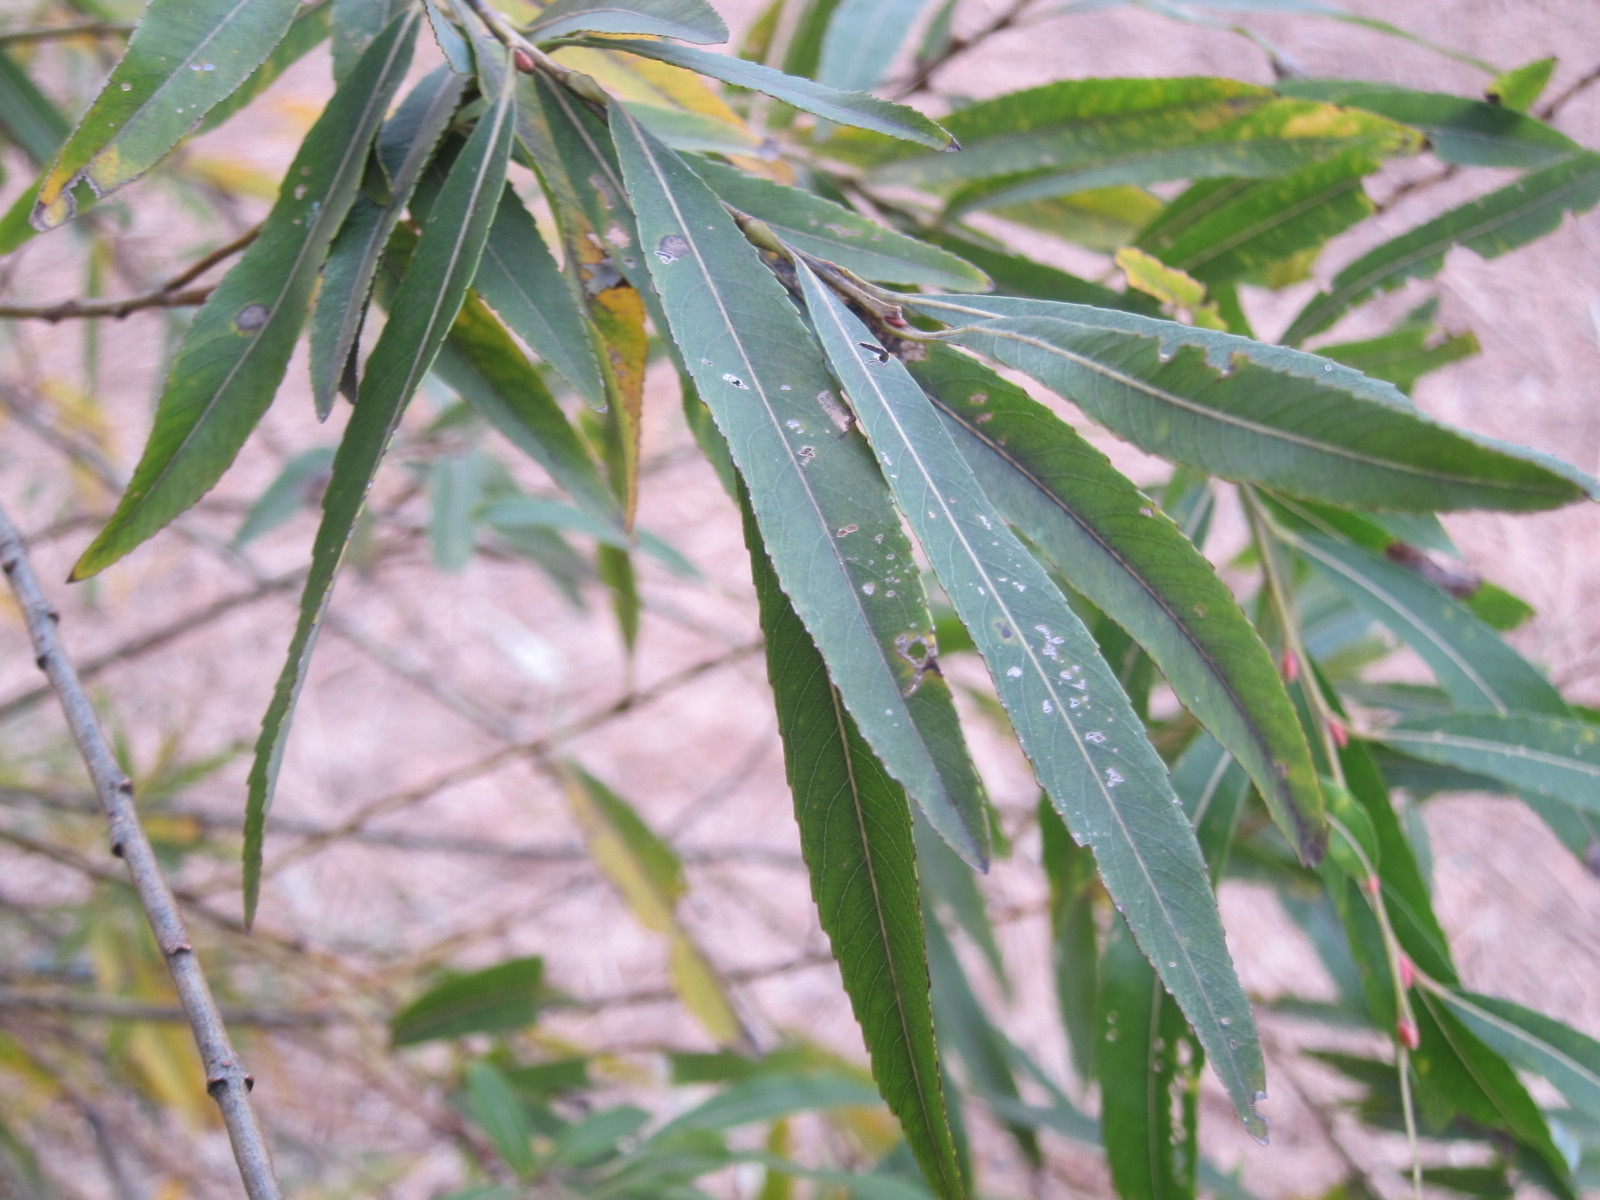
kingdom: Plantae
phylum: Tracheophyta
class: Magnoliopsida
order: Malpighiales
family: Salicaceae
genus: Salix
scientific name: Salix gilgiana
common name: Willow
